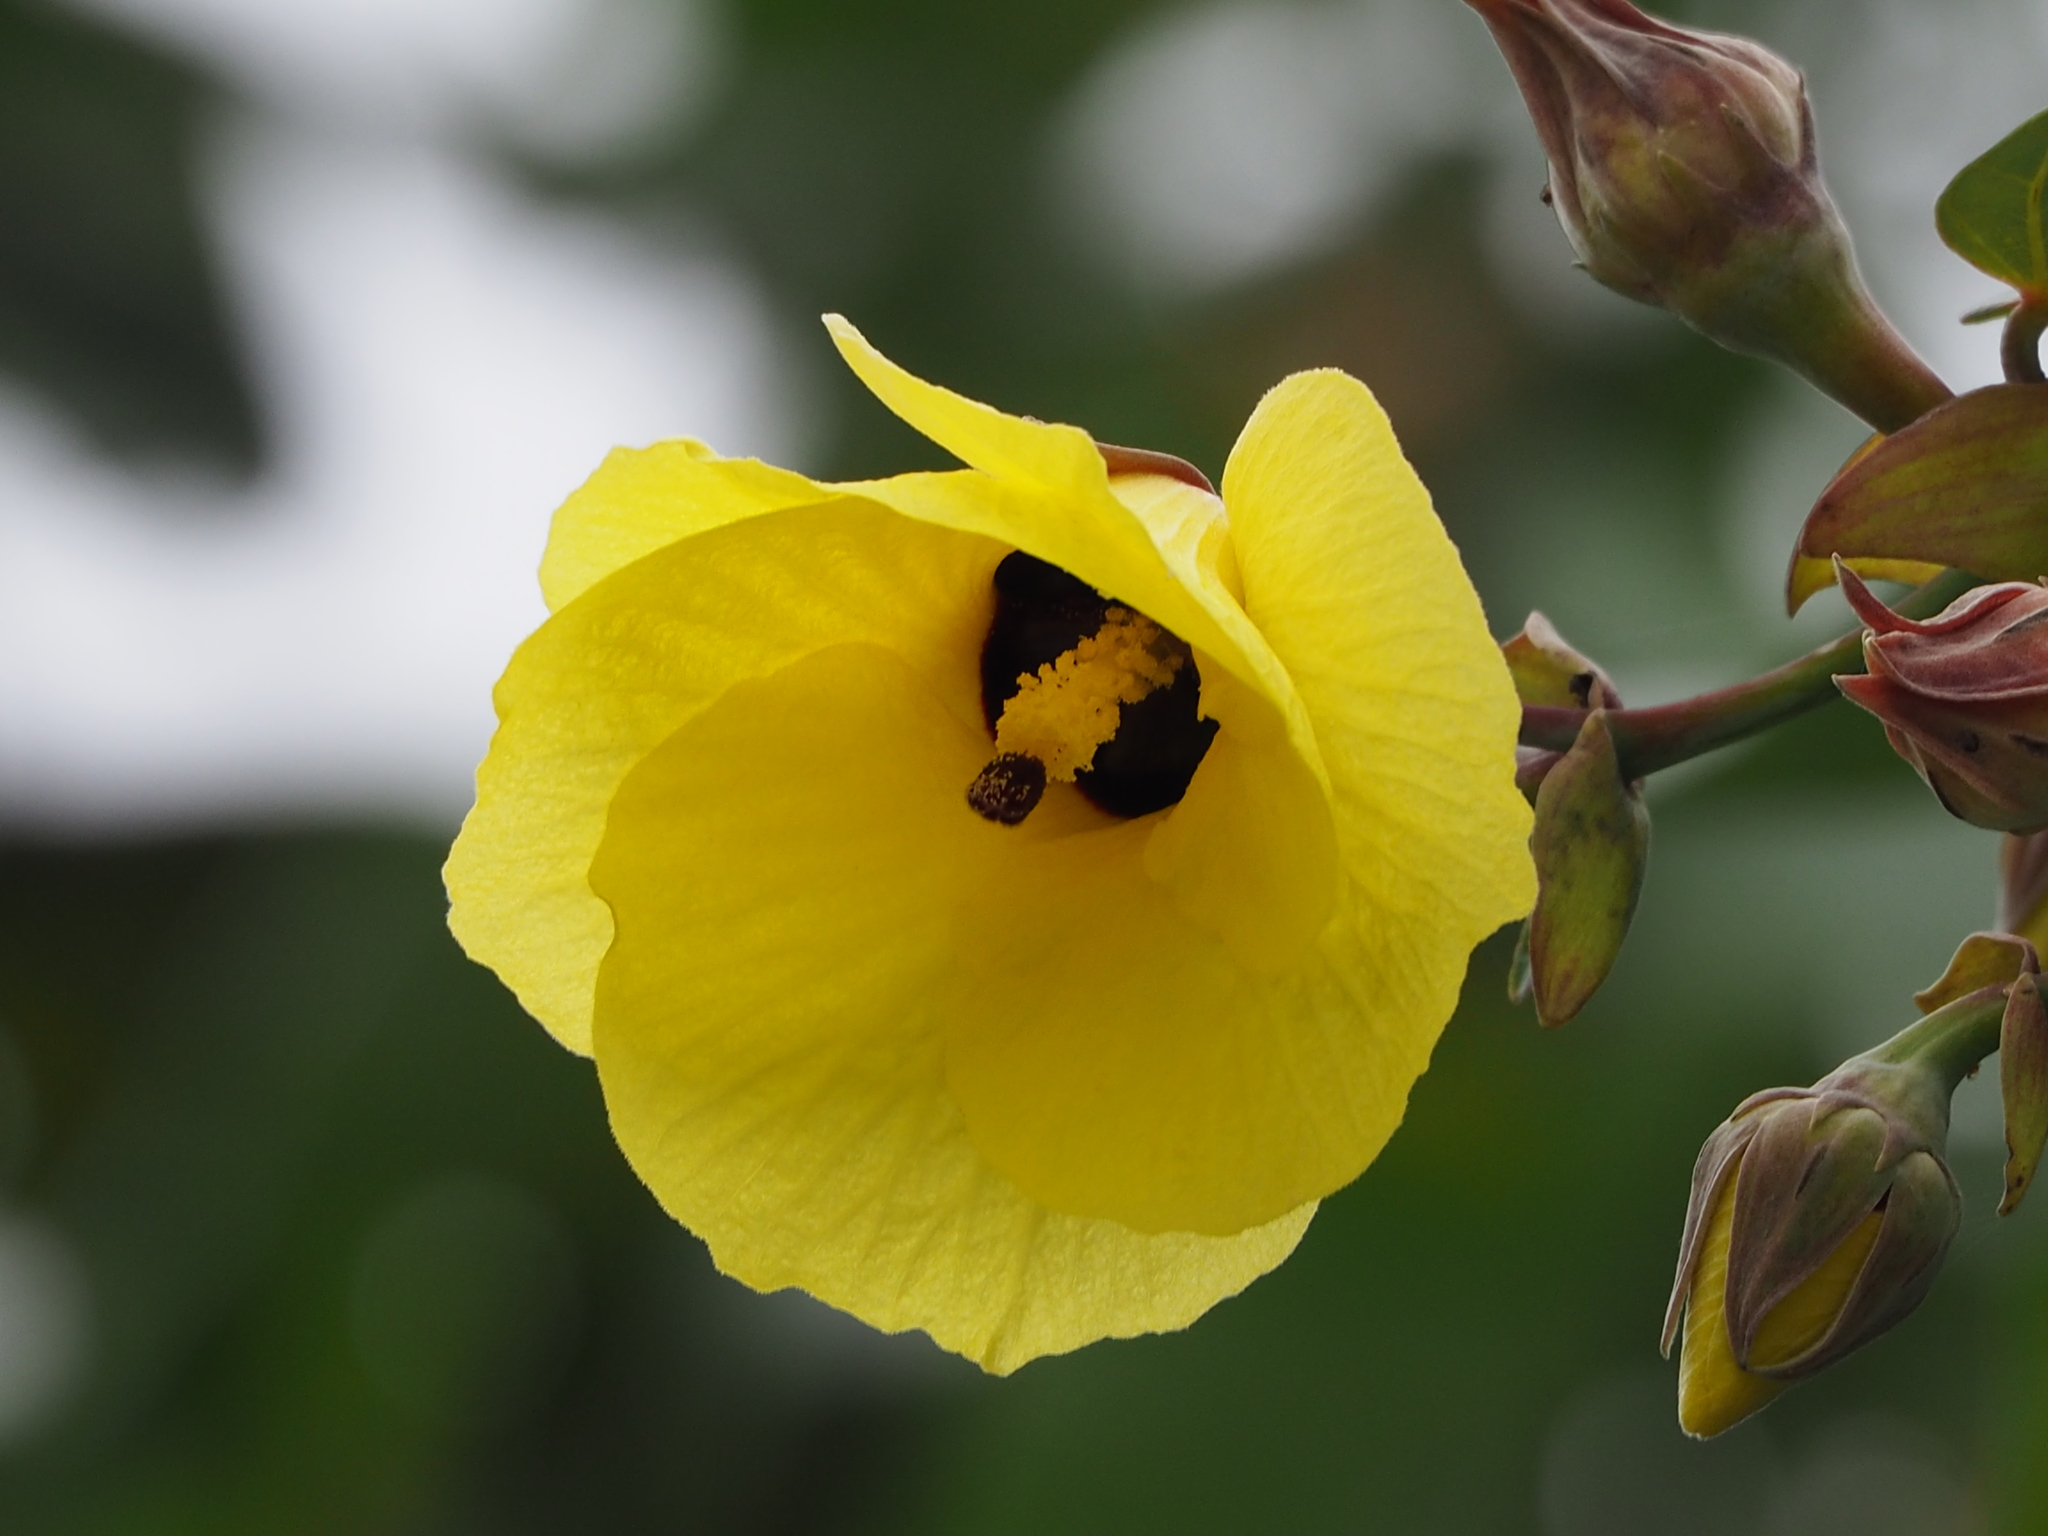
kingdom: Plantae
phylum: Tracheophyta
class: Magnoliopsida
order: Malvales
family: Malvaceae
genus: Talipariti
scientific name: Talipariti tiliaceum
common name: Sea hibiscus
